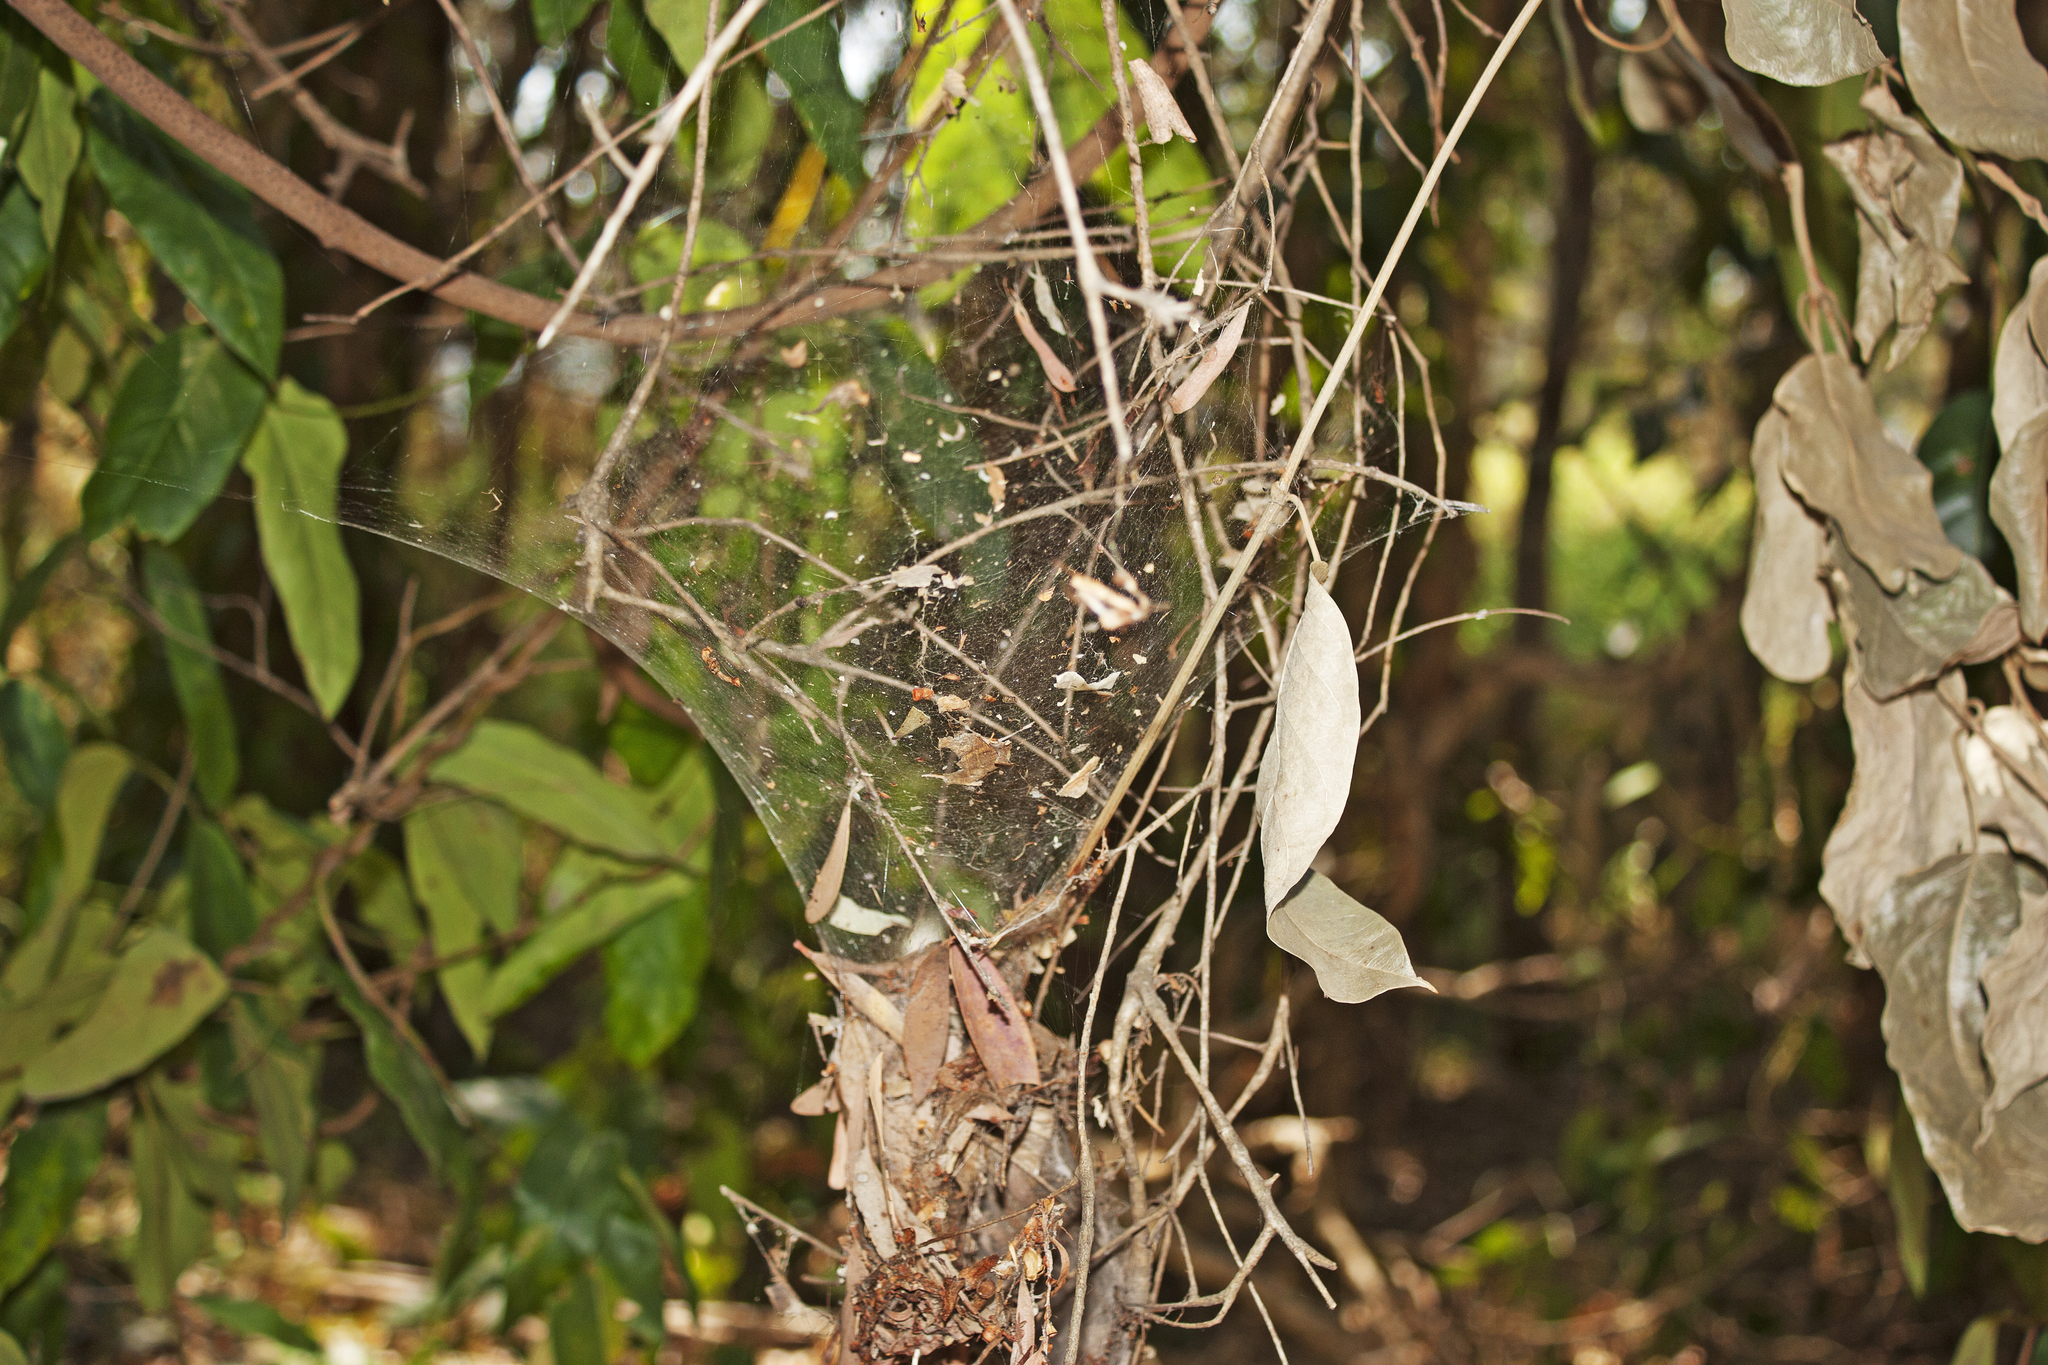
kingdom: Animalia
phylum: Arthropoda
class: Arachnida
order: Araneae
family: Pisauridae
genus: Dendrolycosa
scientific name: Dendrolycosa icadia
